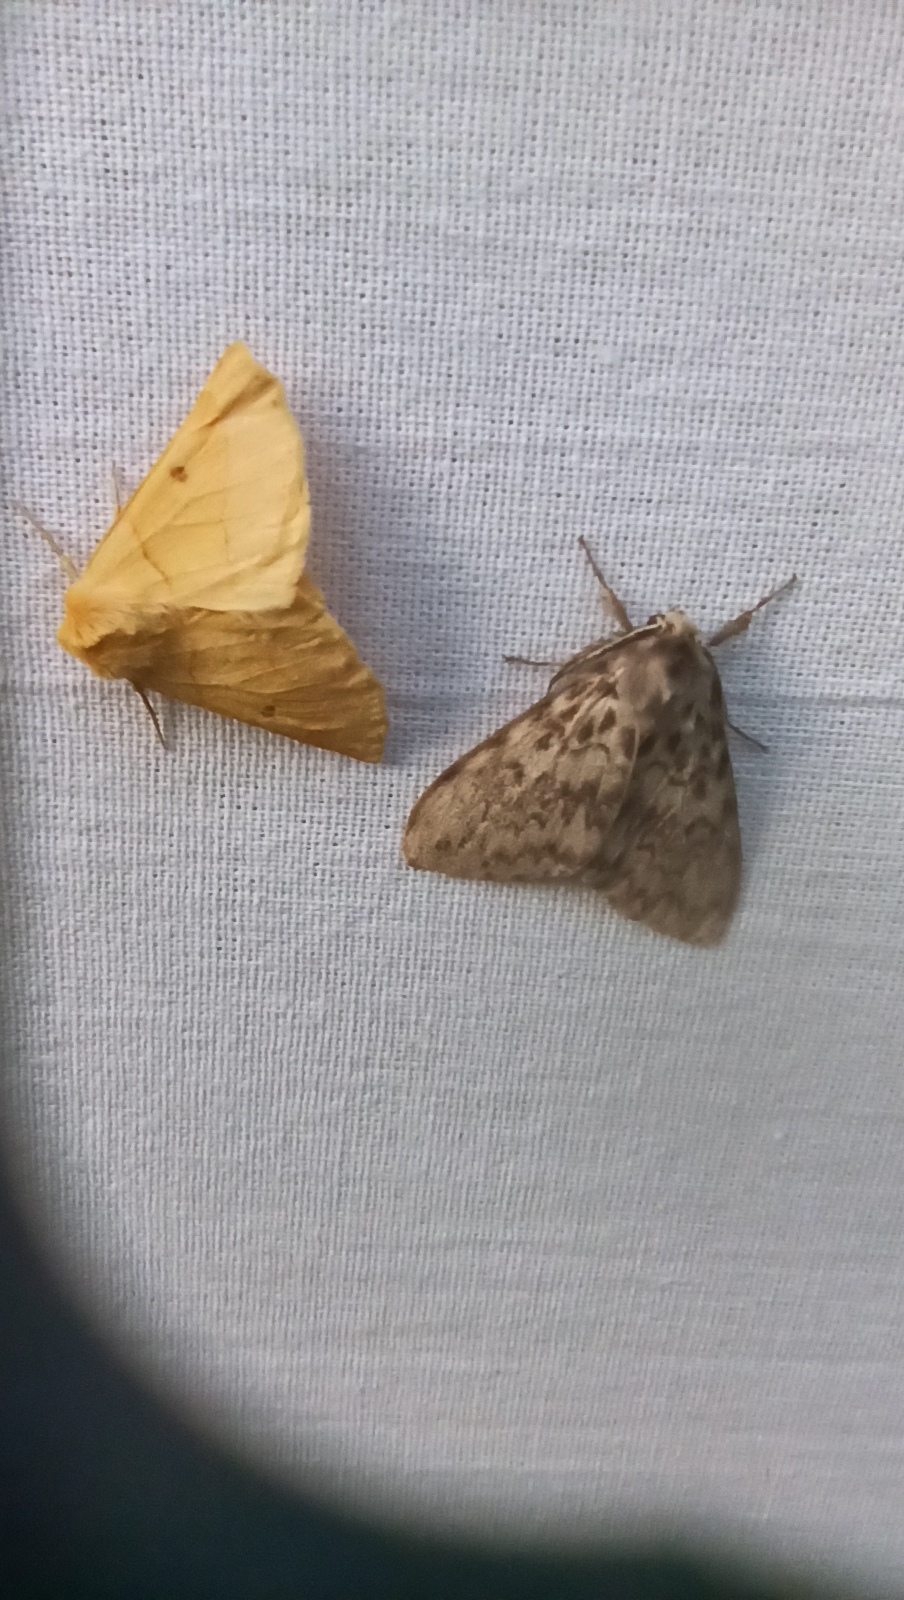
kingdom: Animalia
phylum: Arthropoda
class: Insecta
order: Lepidoptera
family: Geometridae
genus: Crocallis
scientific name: Crocallis elinguaria
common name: Scalloped oak
